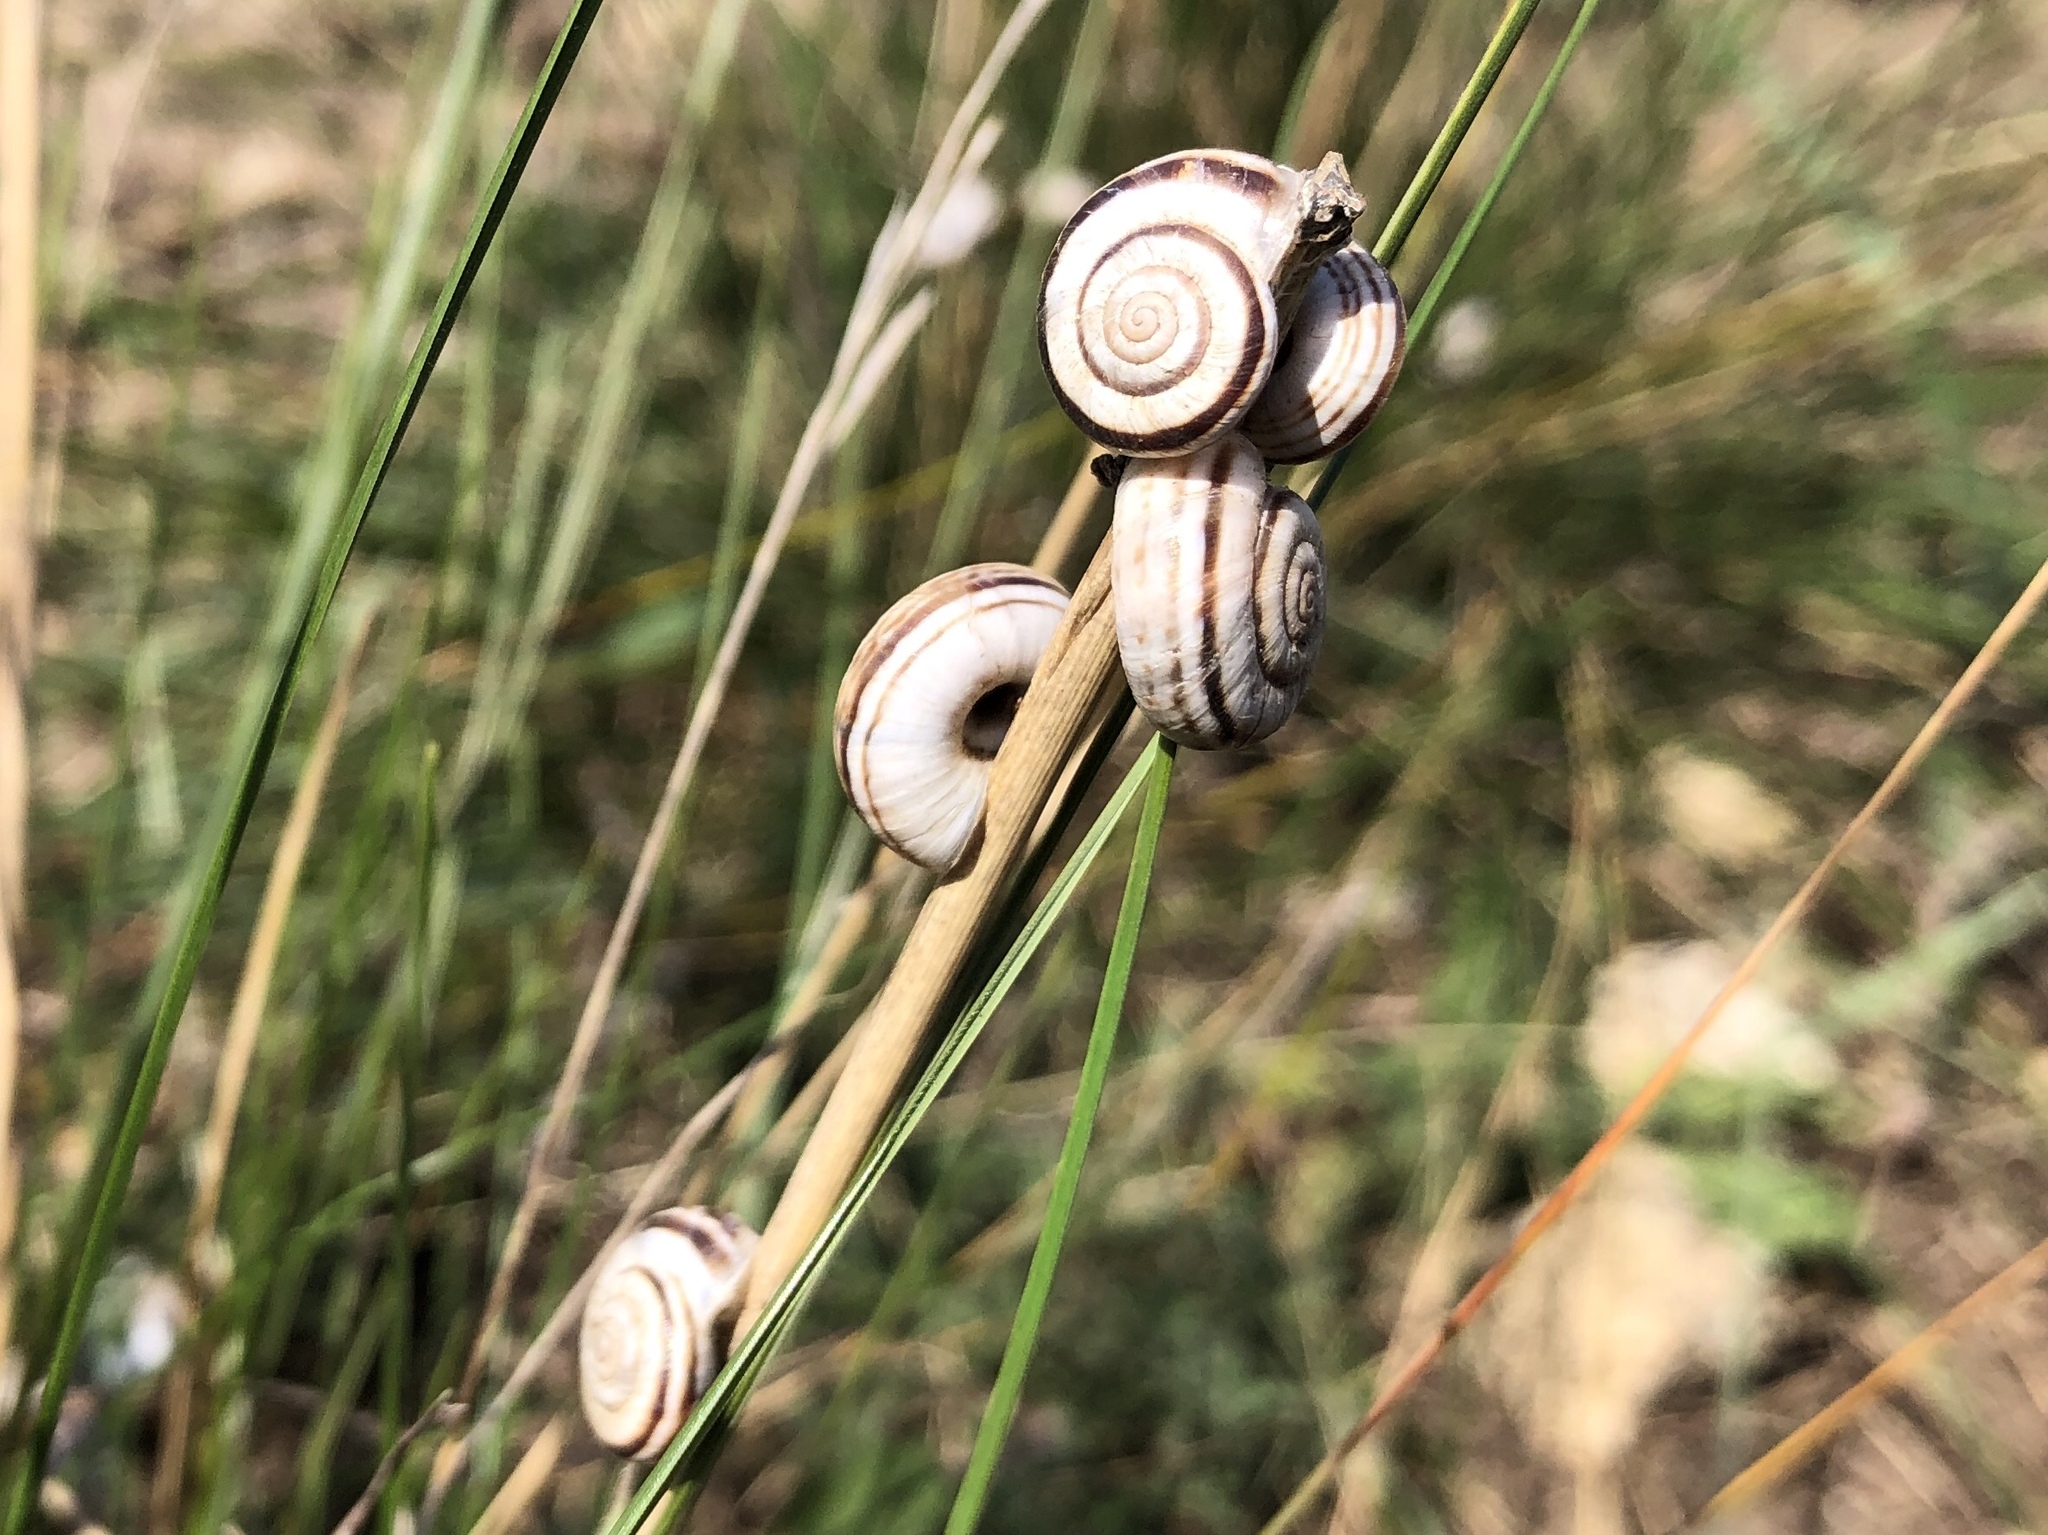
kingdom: Animalia
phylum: Mollusca
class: Gastropoda
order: Stylommatophora
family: Geomitridae
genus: Xerolenta
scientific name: Xerolenta obvia
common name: White heath snail
